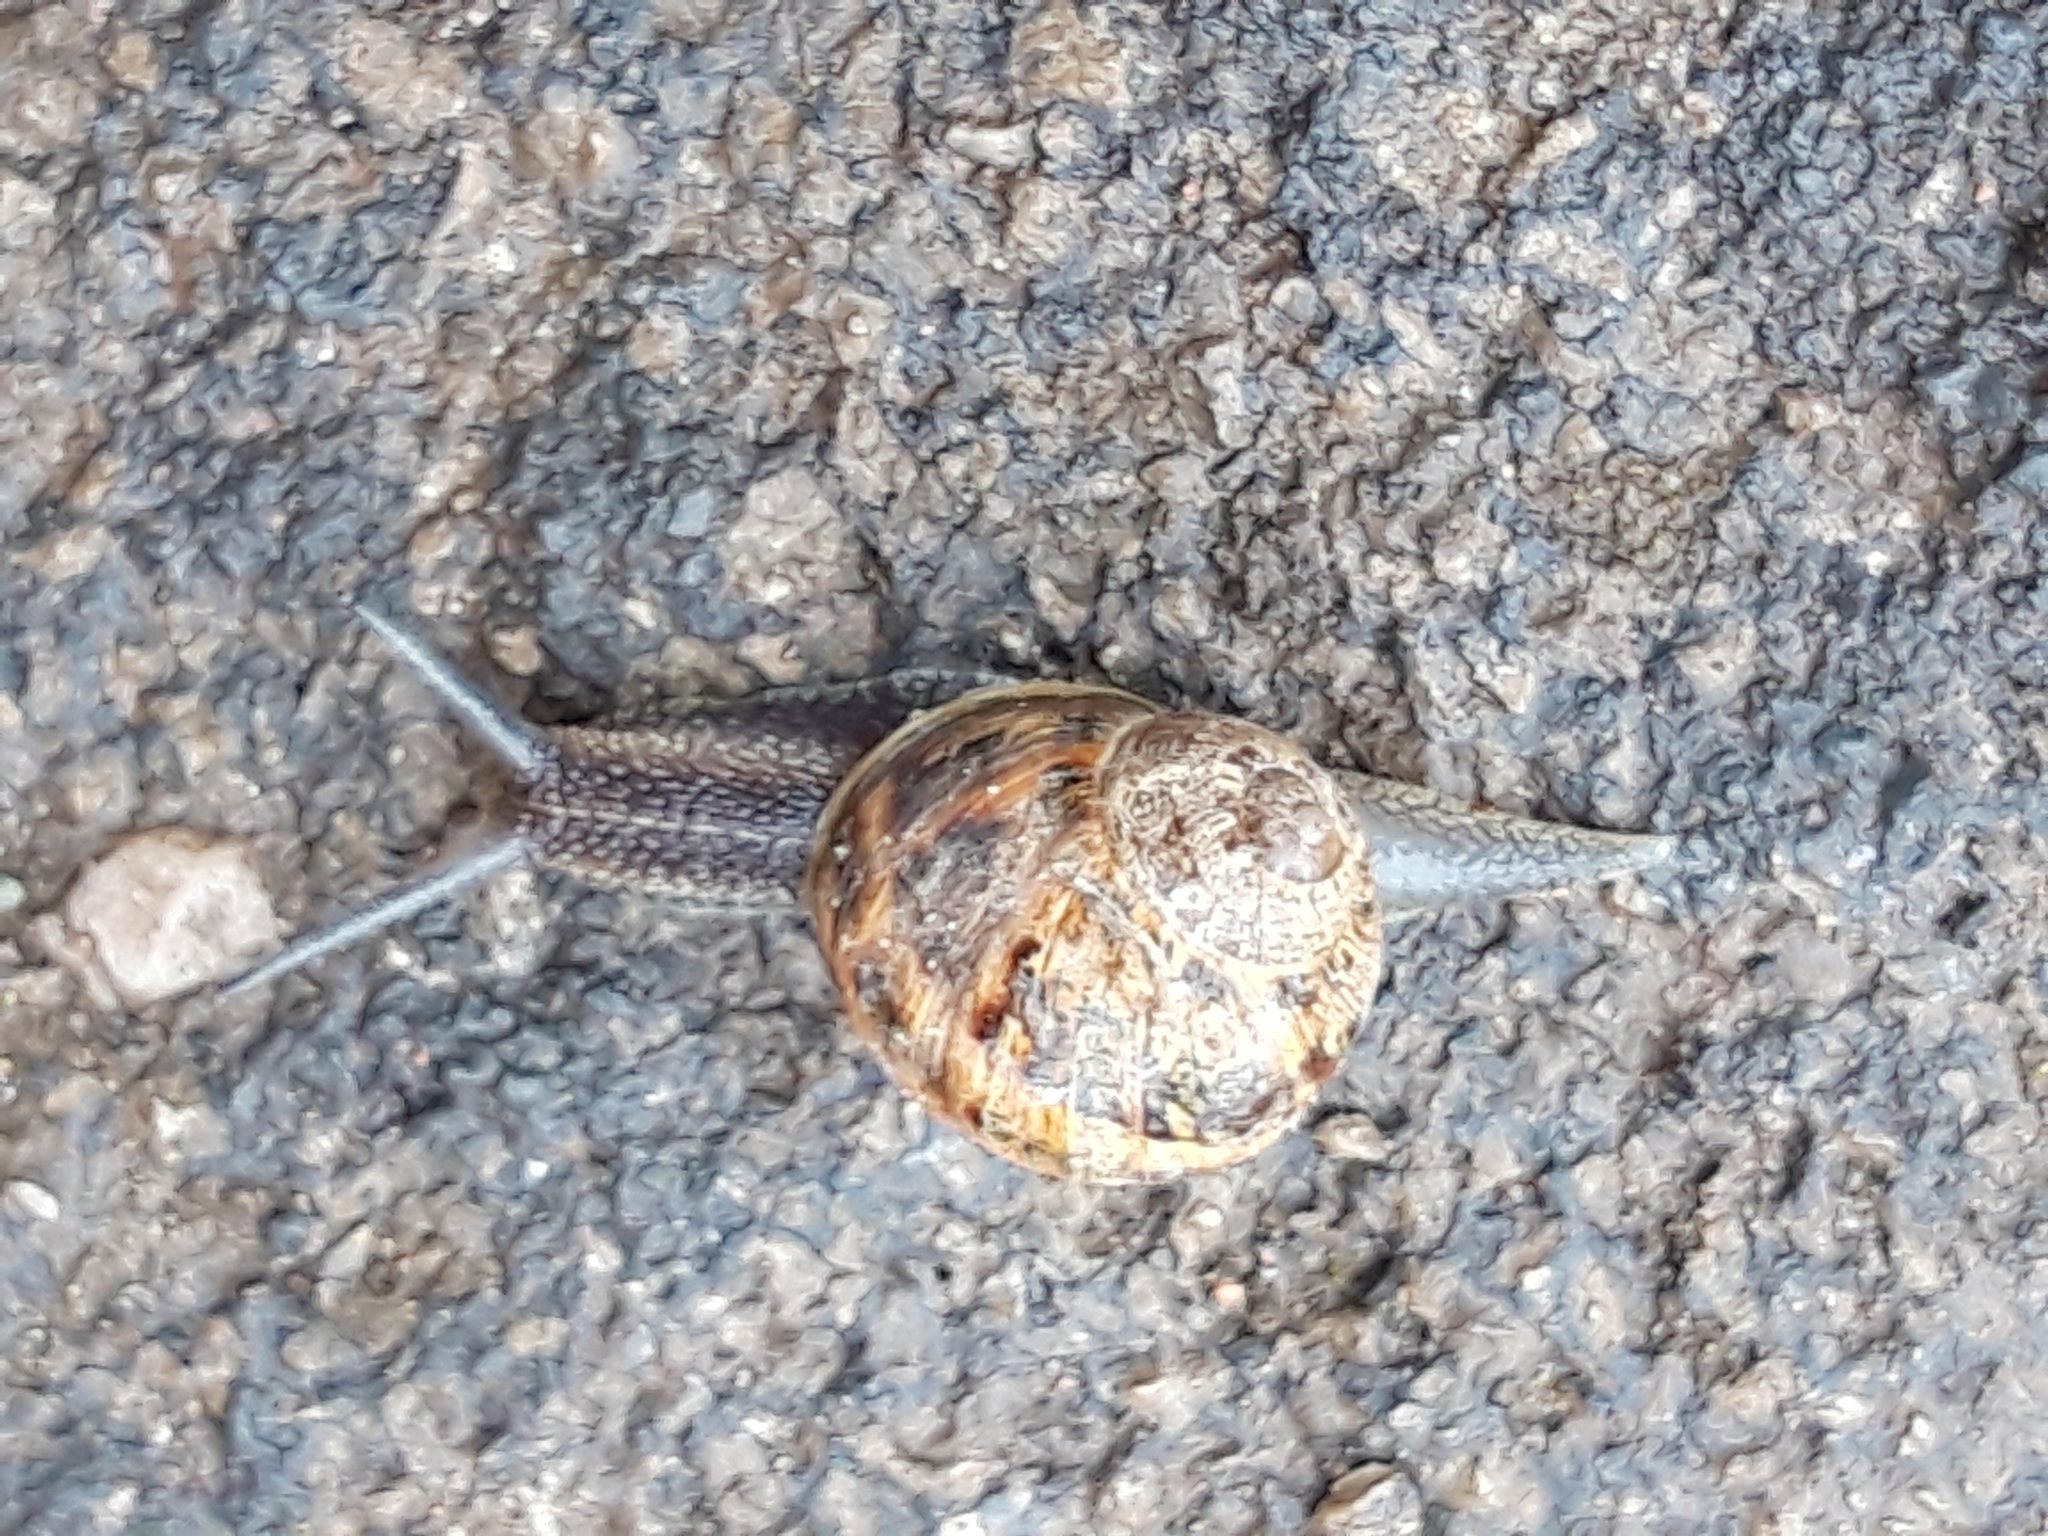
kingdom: Animalia
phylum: Mollusca
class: Gastropoda
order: Stylommatophora
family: Helicidae
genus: Cornu
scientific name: Cornu aspersum
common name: Brown garden snail
